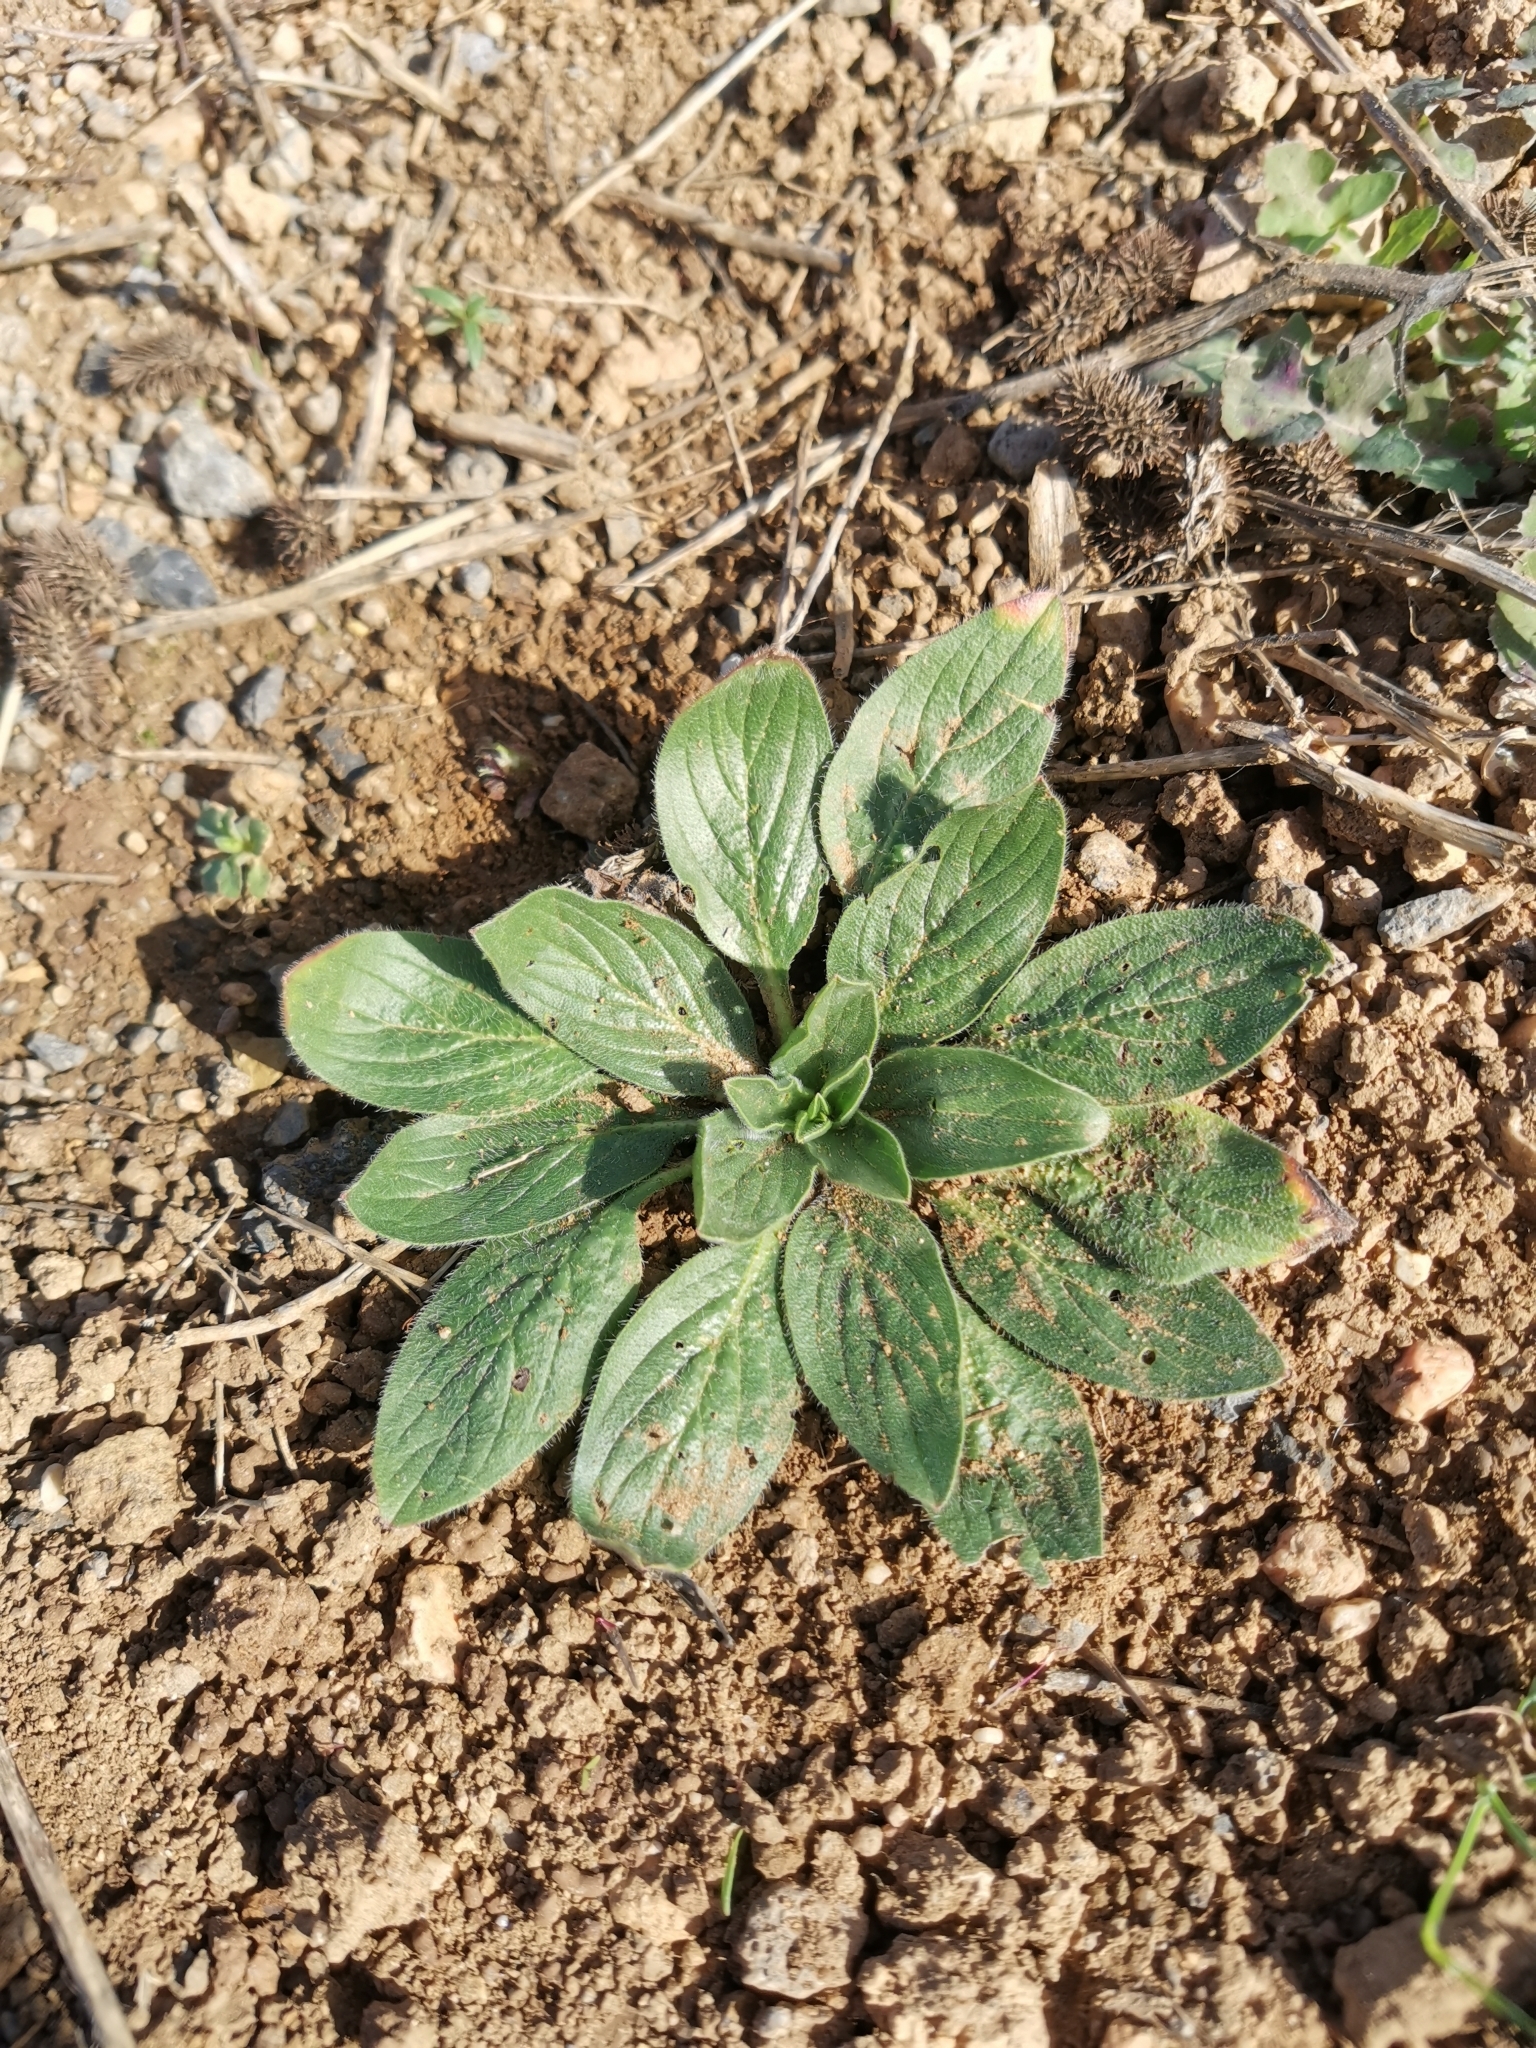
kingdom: Plantae
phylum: Tracheophyta
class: Magnoliopsida
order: Boraginales
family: Boraginaceae
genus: Echium
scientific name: Echium plantagineum
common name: Purple viper's-bugloss
